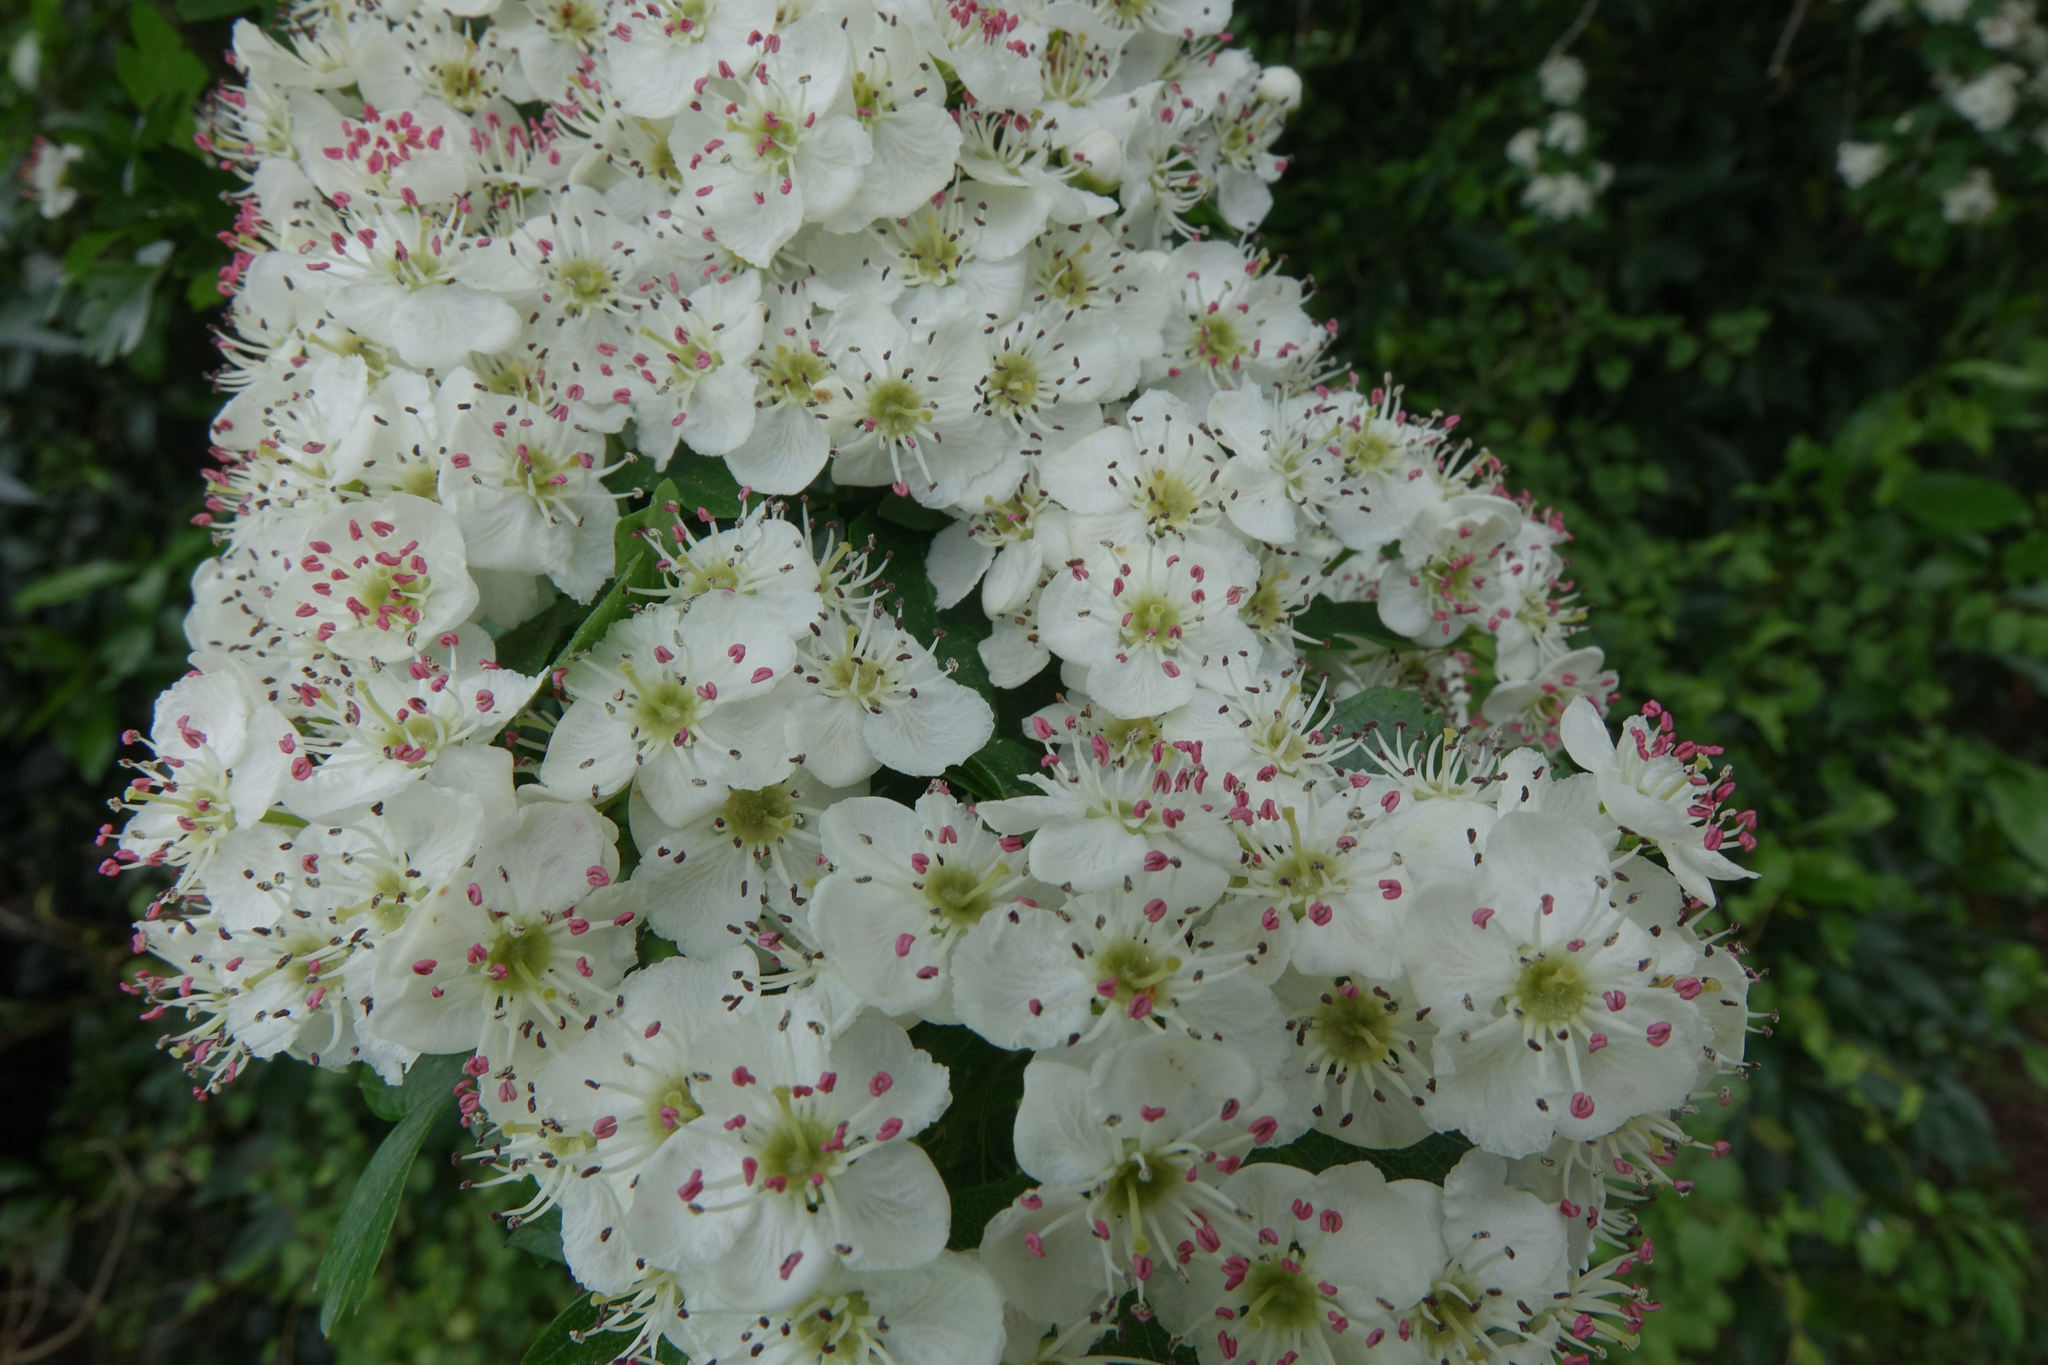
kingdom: Plantae
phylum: Tracheophyta
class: Magnoliopsida
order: Rosales
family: Rosaceae
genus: Crataegus
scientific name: Crataegus monogyna
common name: Hawthorn
